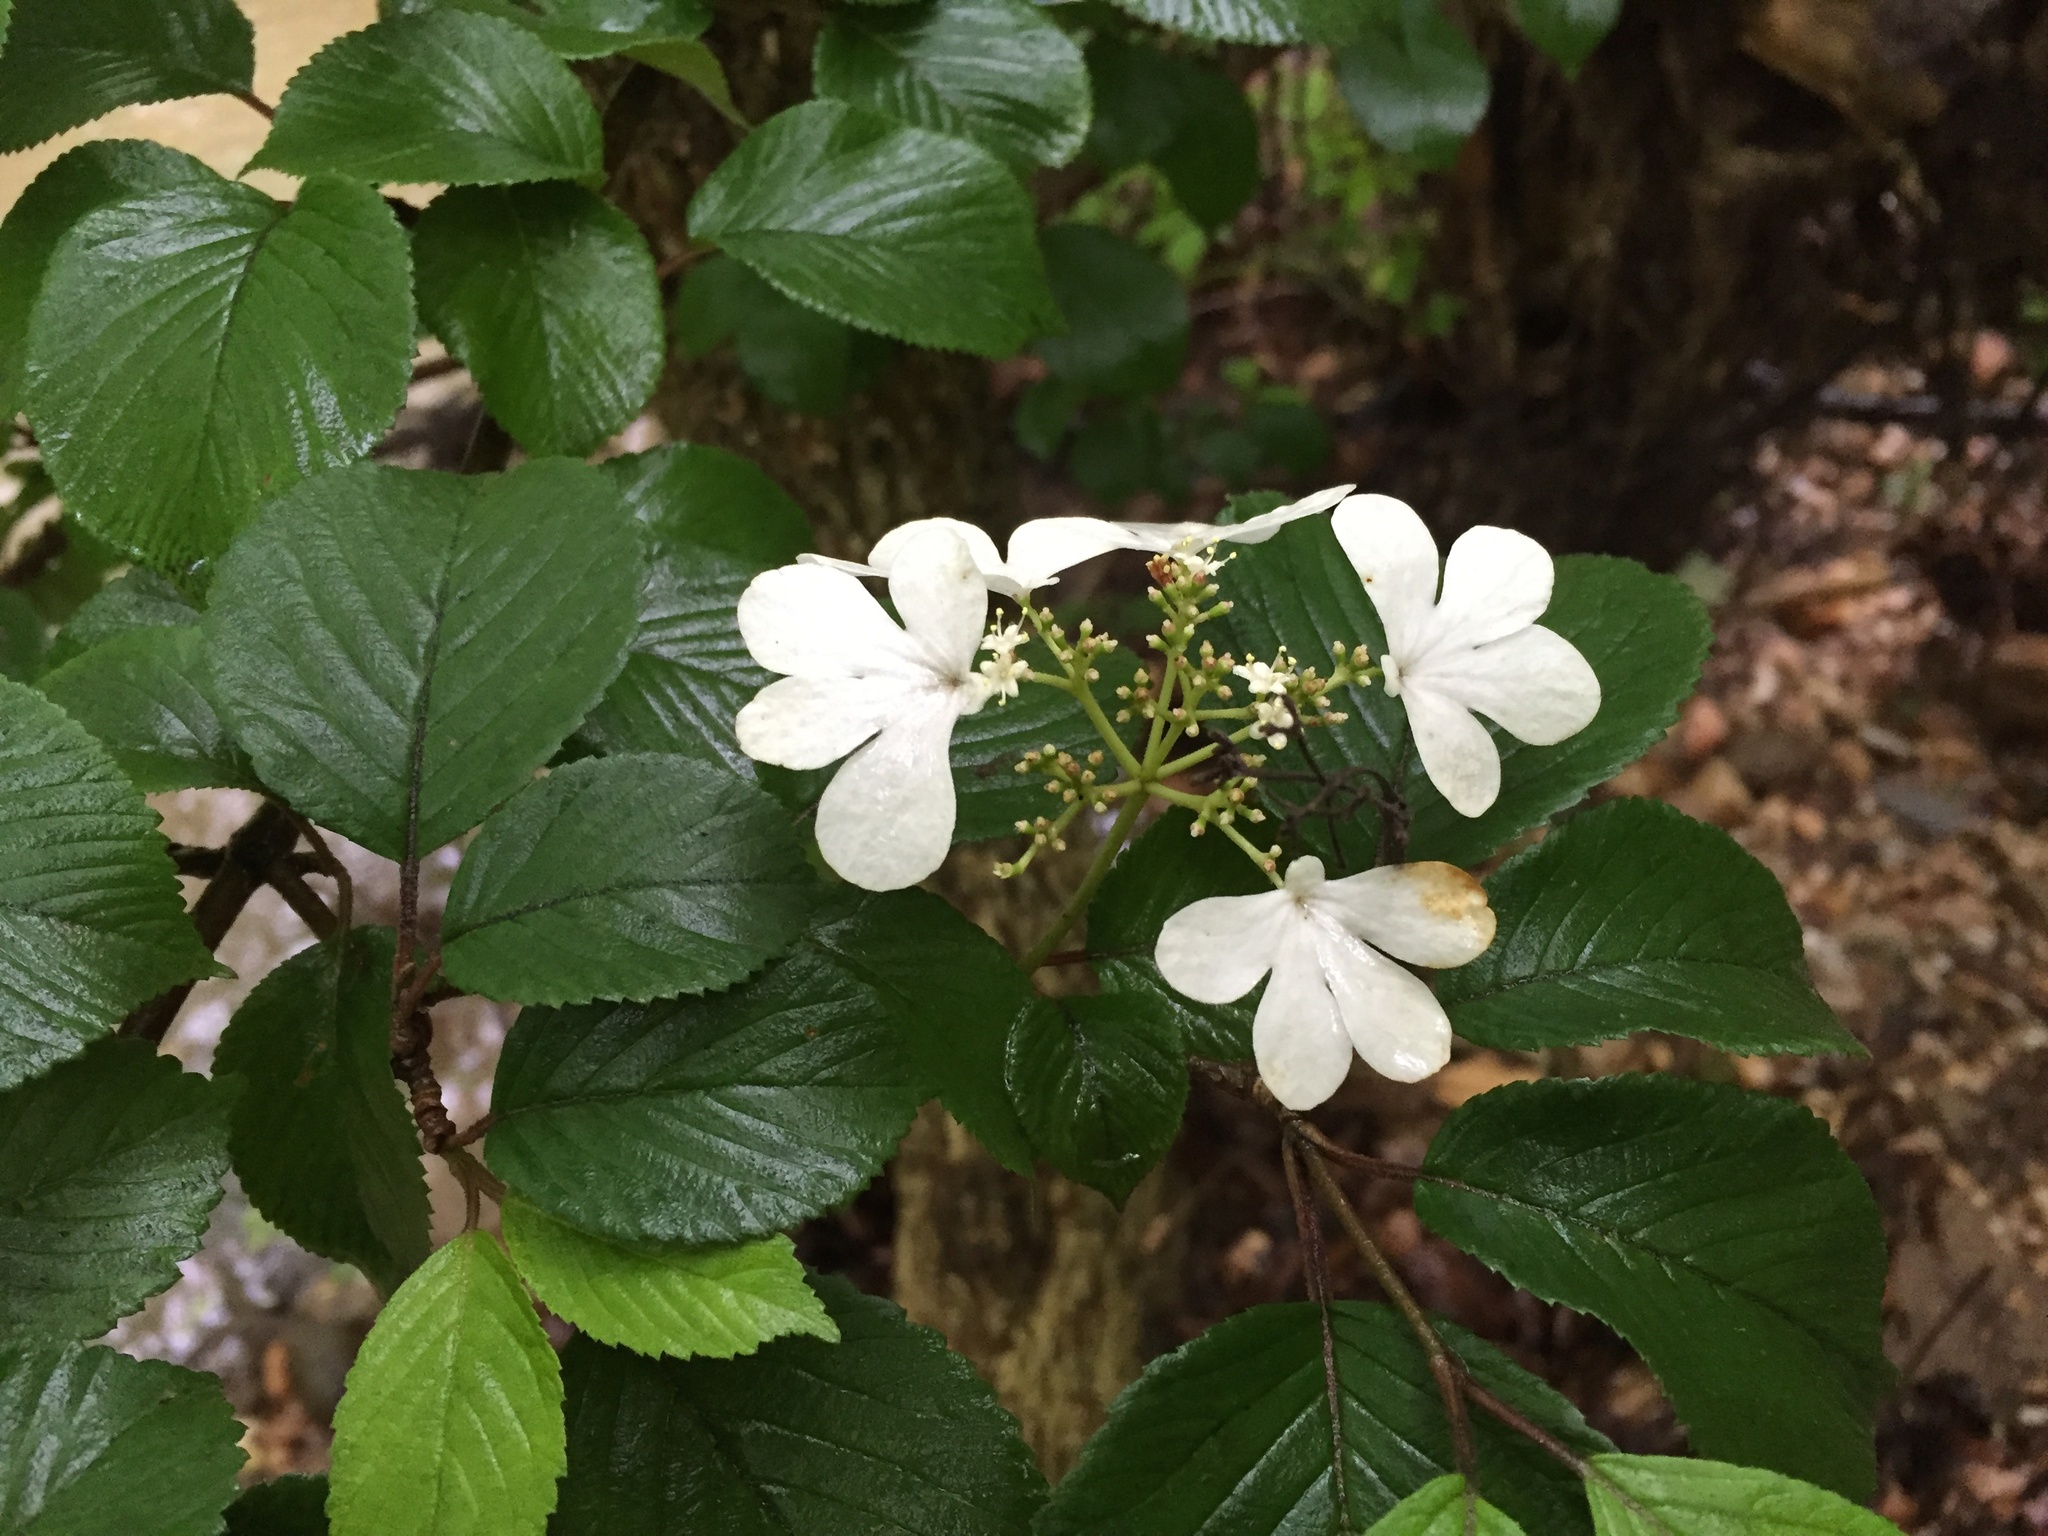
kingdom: Plantae
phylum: Tracheophyta
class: Magnoliopsida
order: Dipsacales
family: Viburnaceae
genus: Viburnum
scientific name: Viburnum plicatum
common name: Japanese snowball
